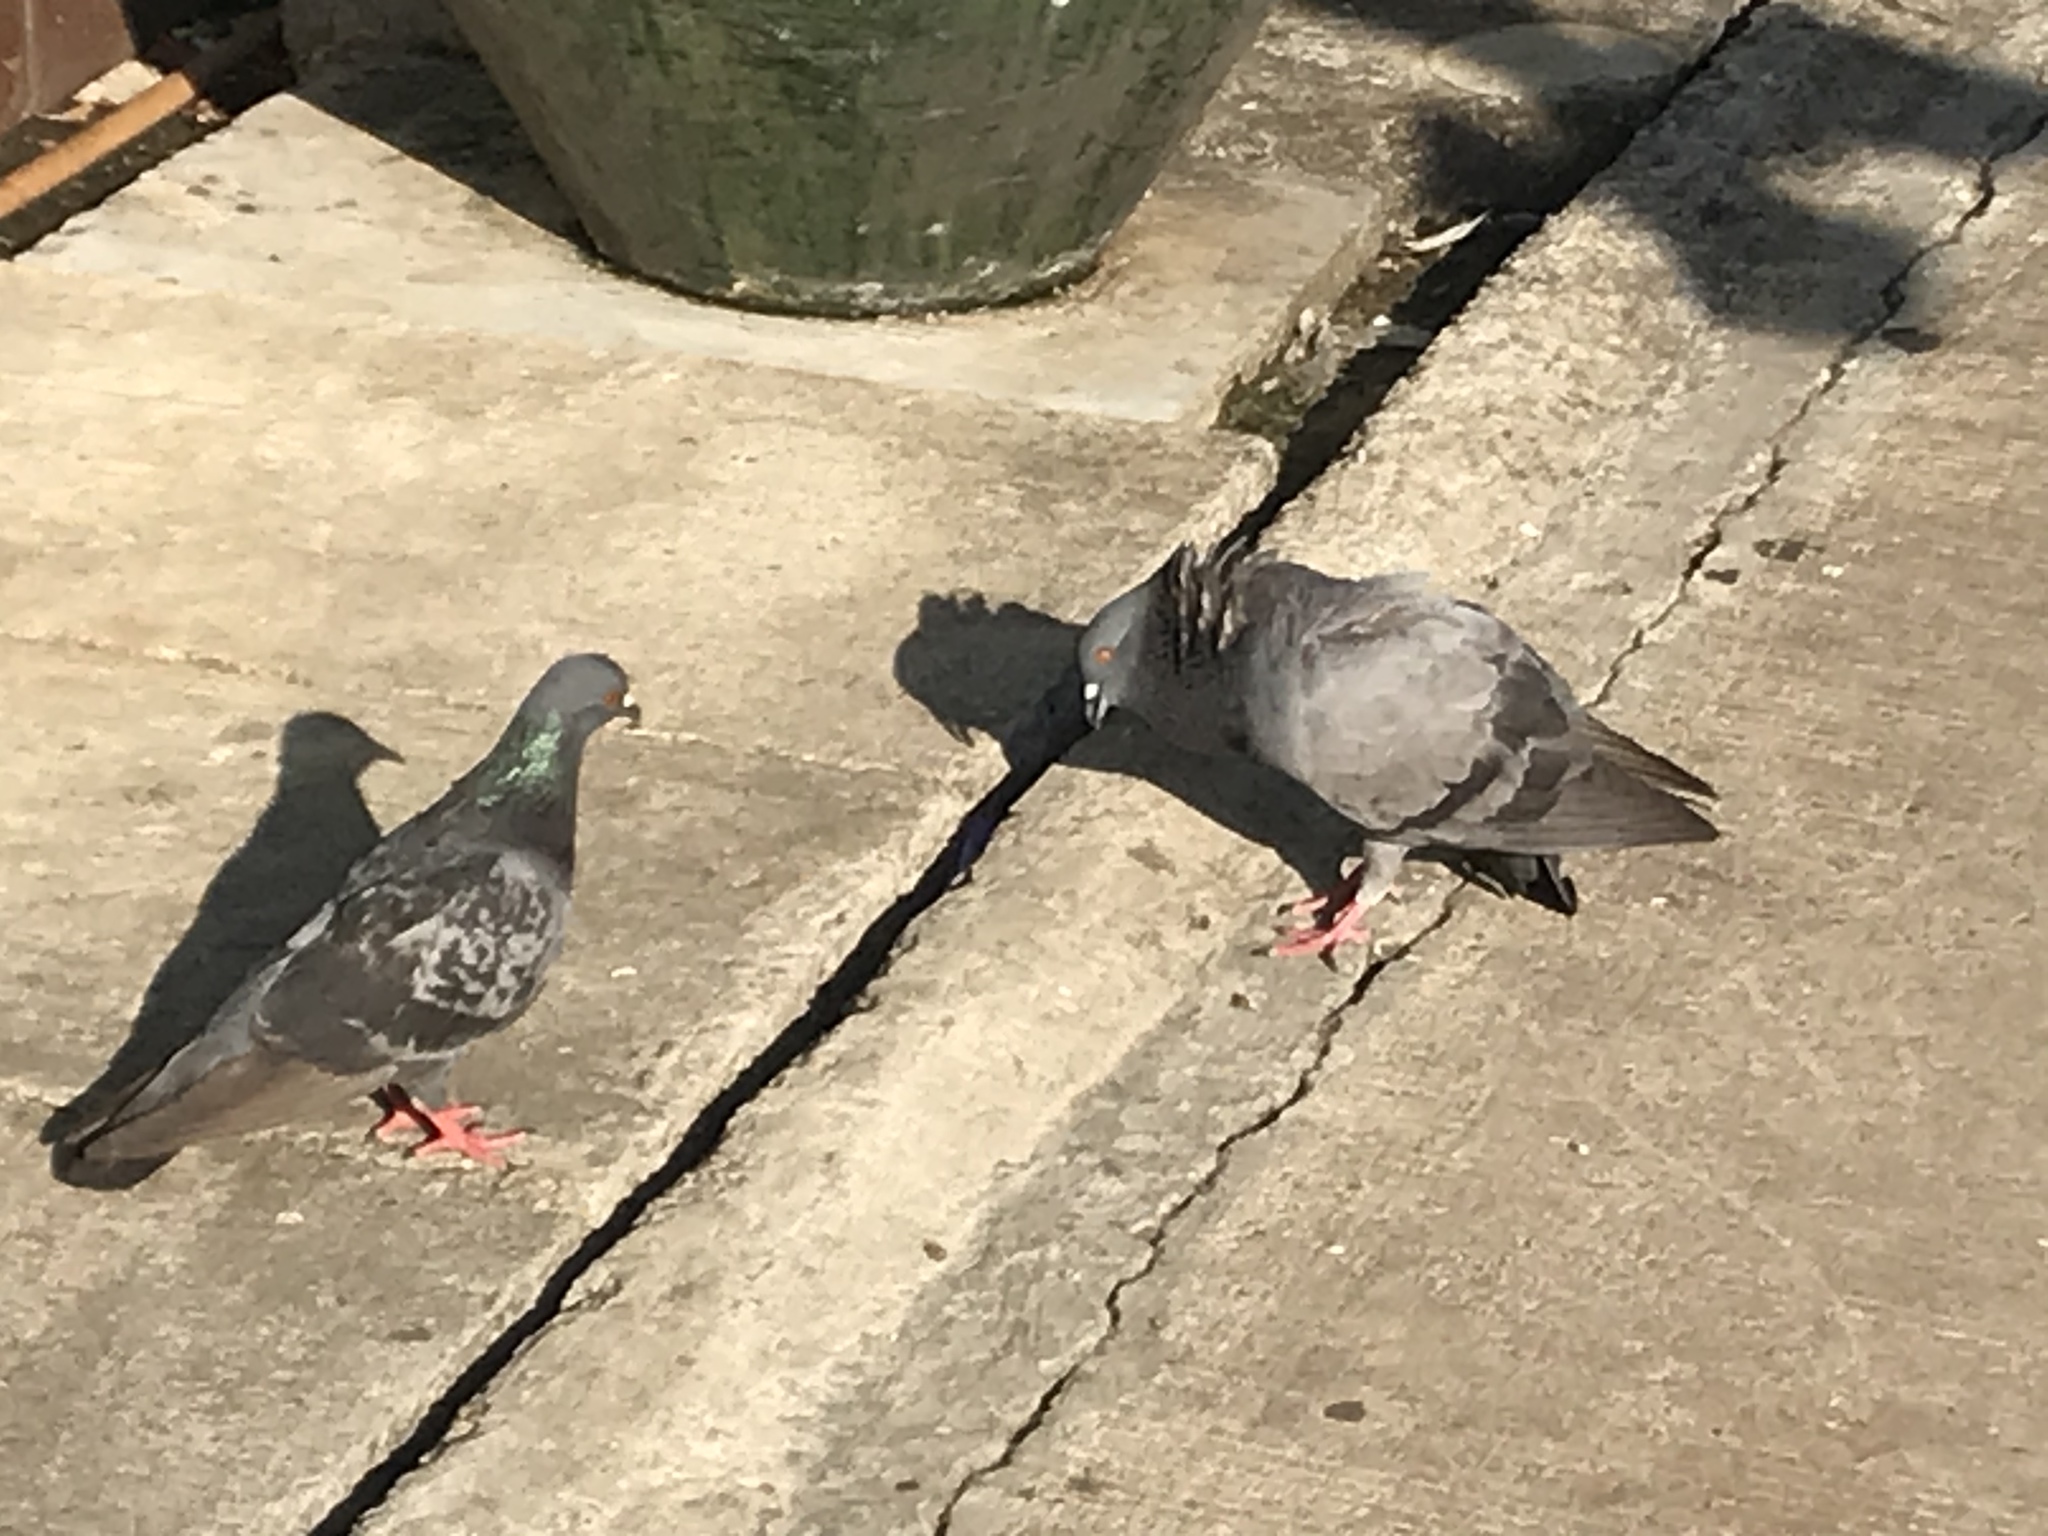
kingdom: Animalia
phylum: Chordata
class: Aves
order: Columbiformes
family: Columbidae
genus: Columba
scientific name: Columba livia
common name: Rock pigeon
